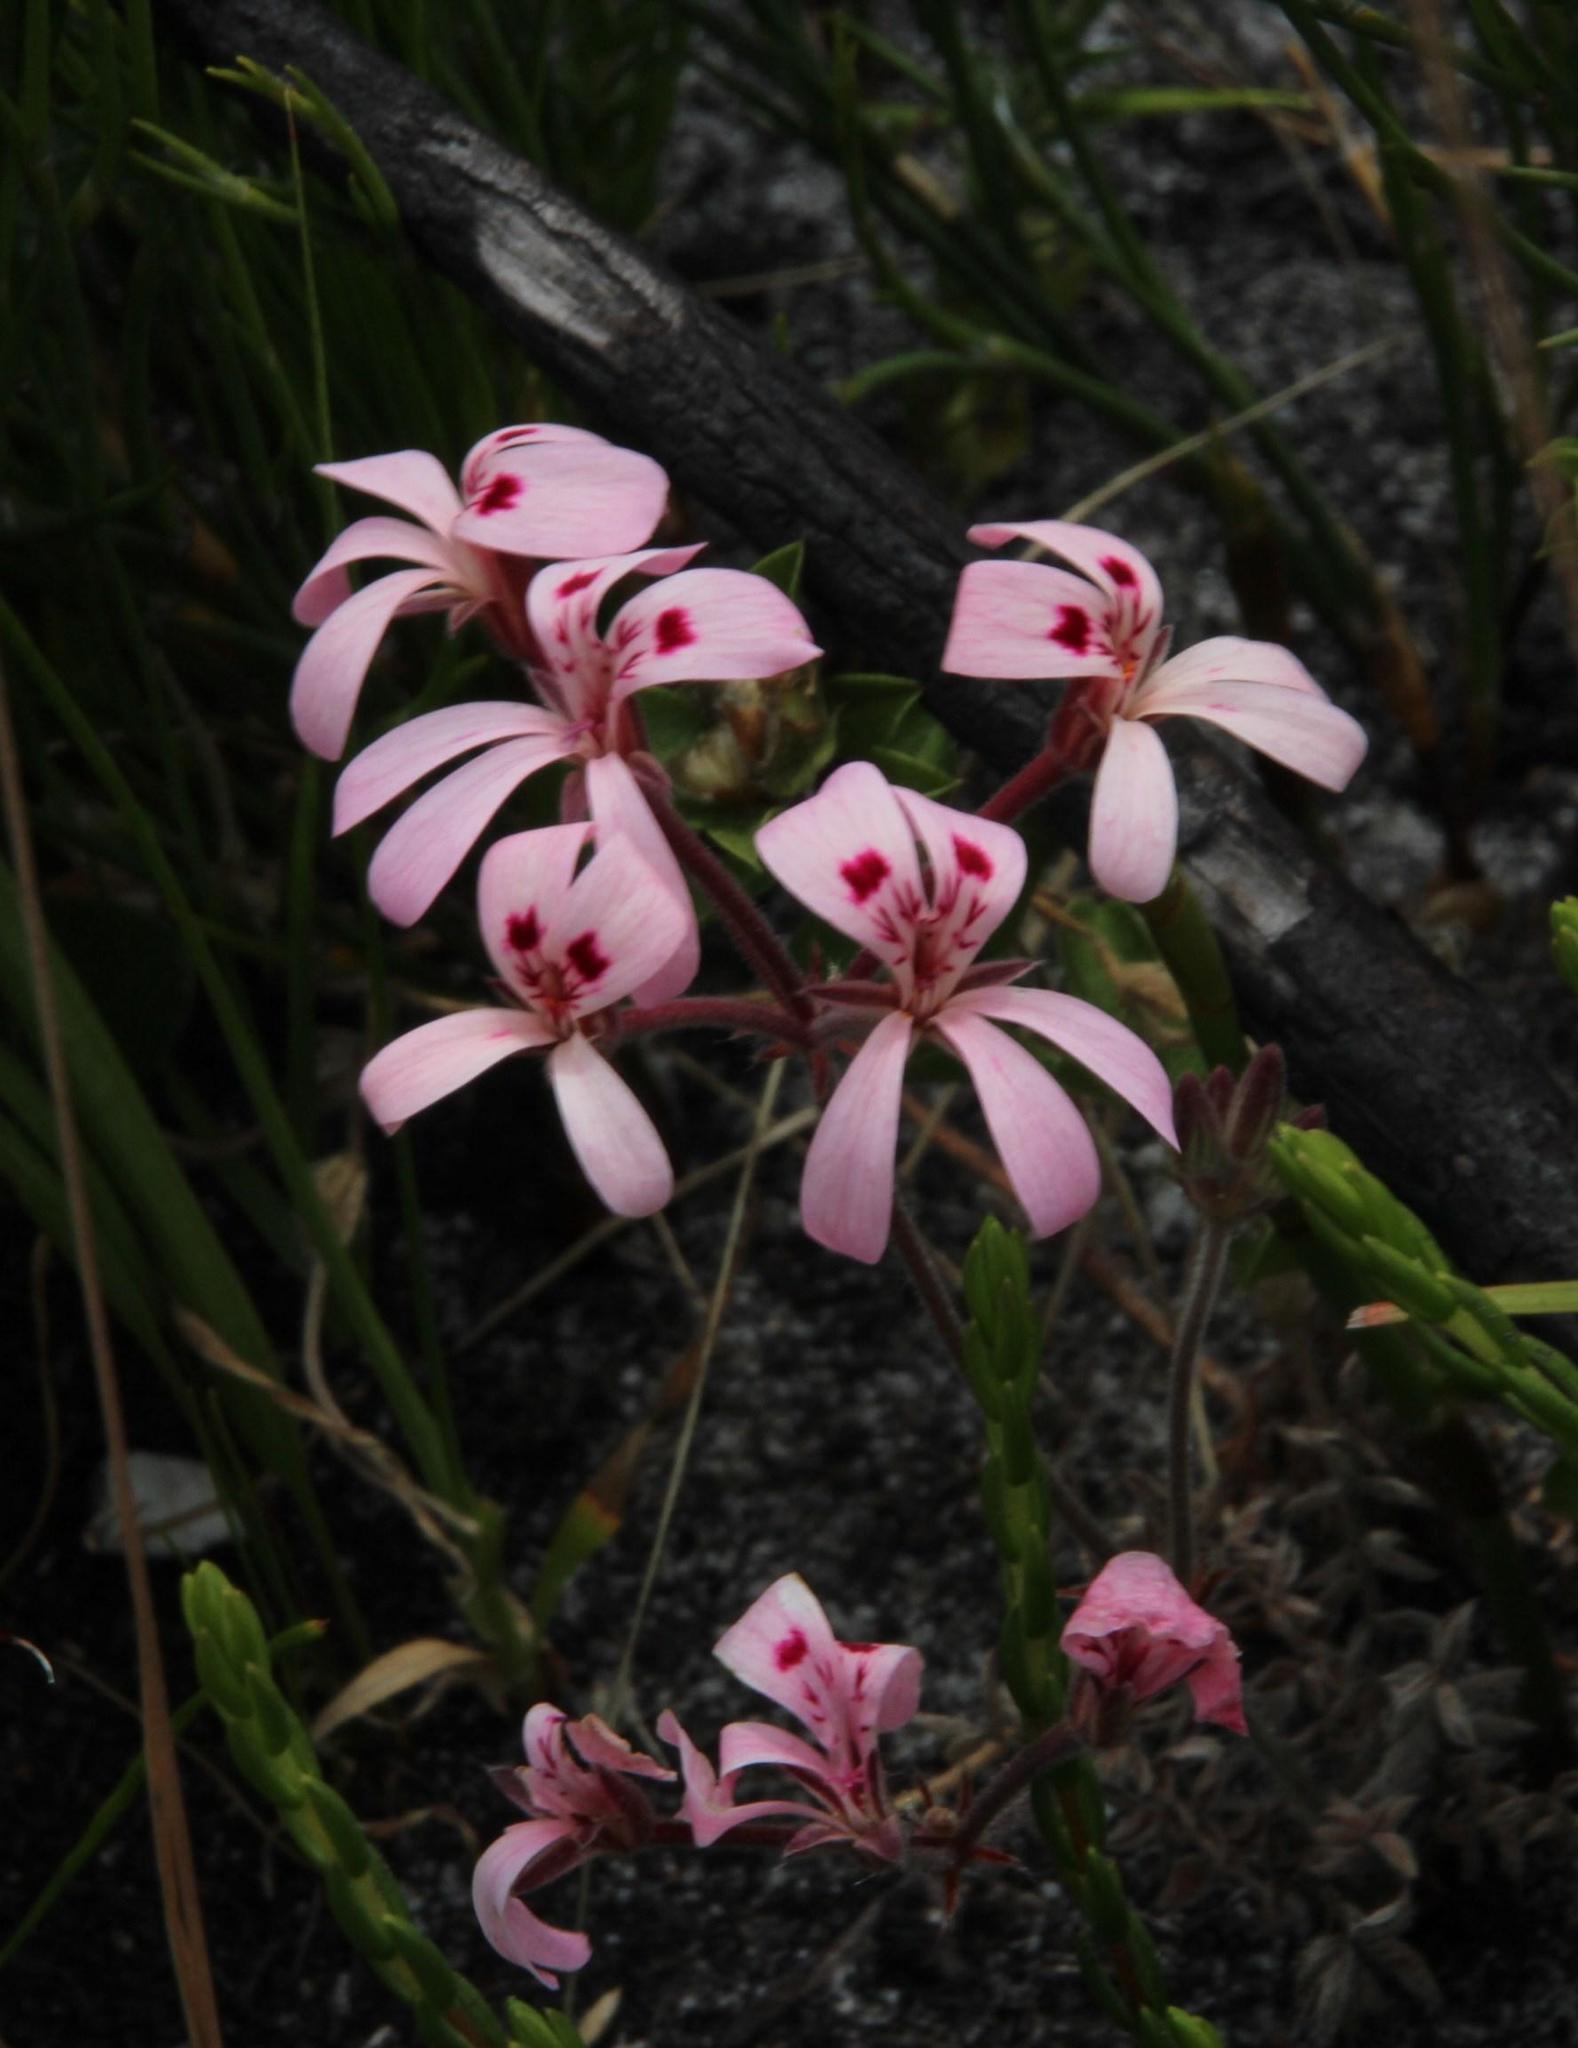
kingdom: Plantae
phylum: Tracheophyta
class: Magnoliopsida
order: Geraniales
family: Geraniaceae
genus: Pelargonium
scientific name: Pelargonium pinnatum
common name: Pinnated pelargonium
